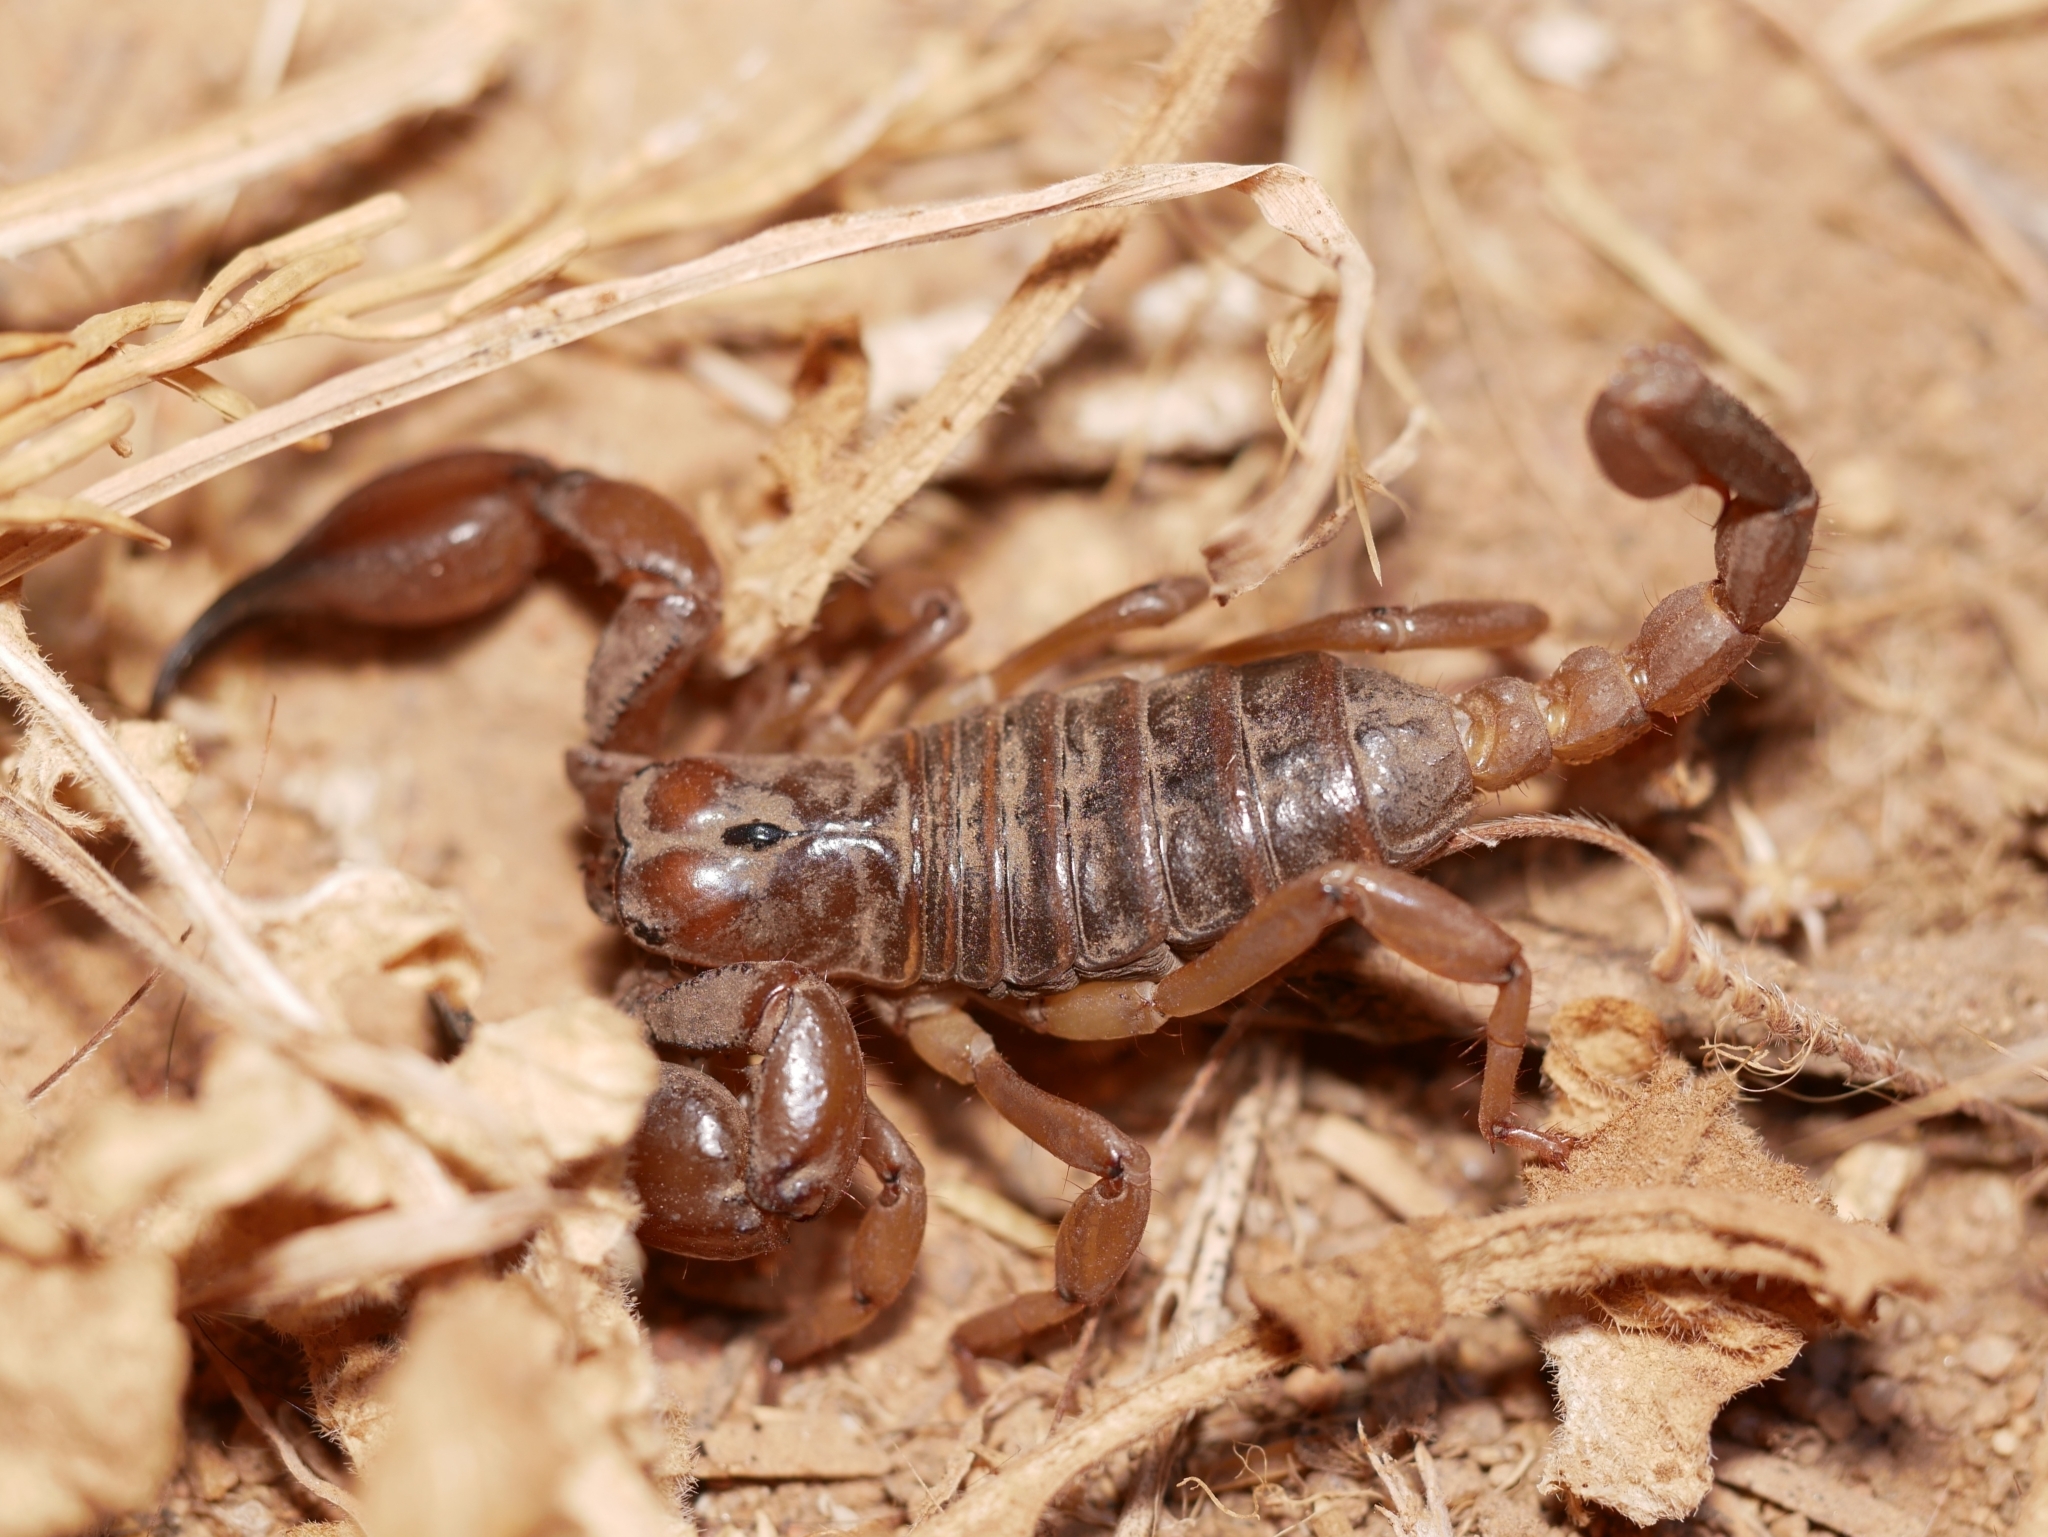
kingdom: Animalia
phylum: Arthropoda
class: Arachnida
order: Scorpiones
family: Chactidae
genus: Anuroctonus
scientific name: Anuroctonus pococki
